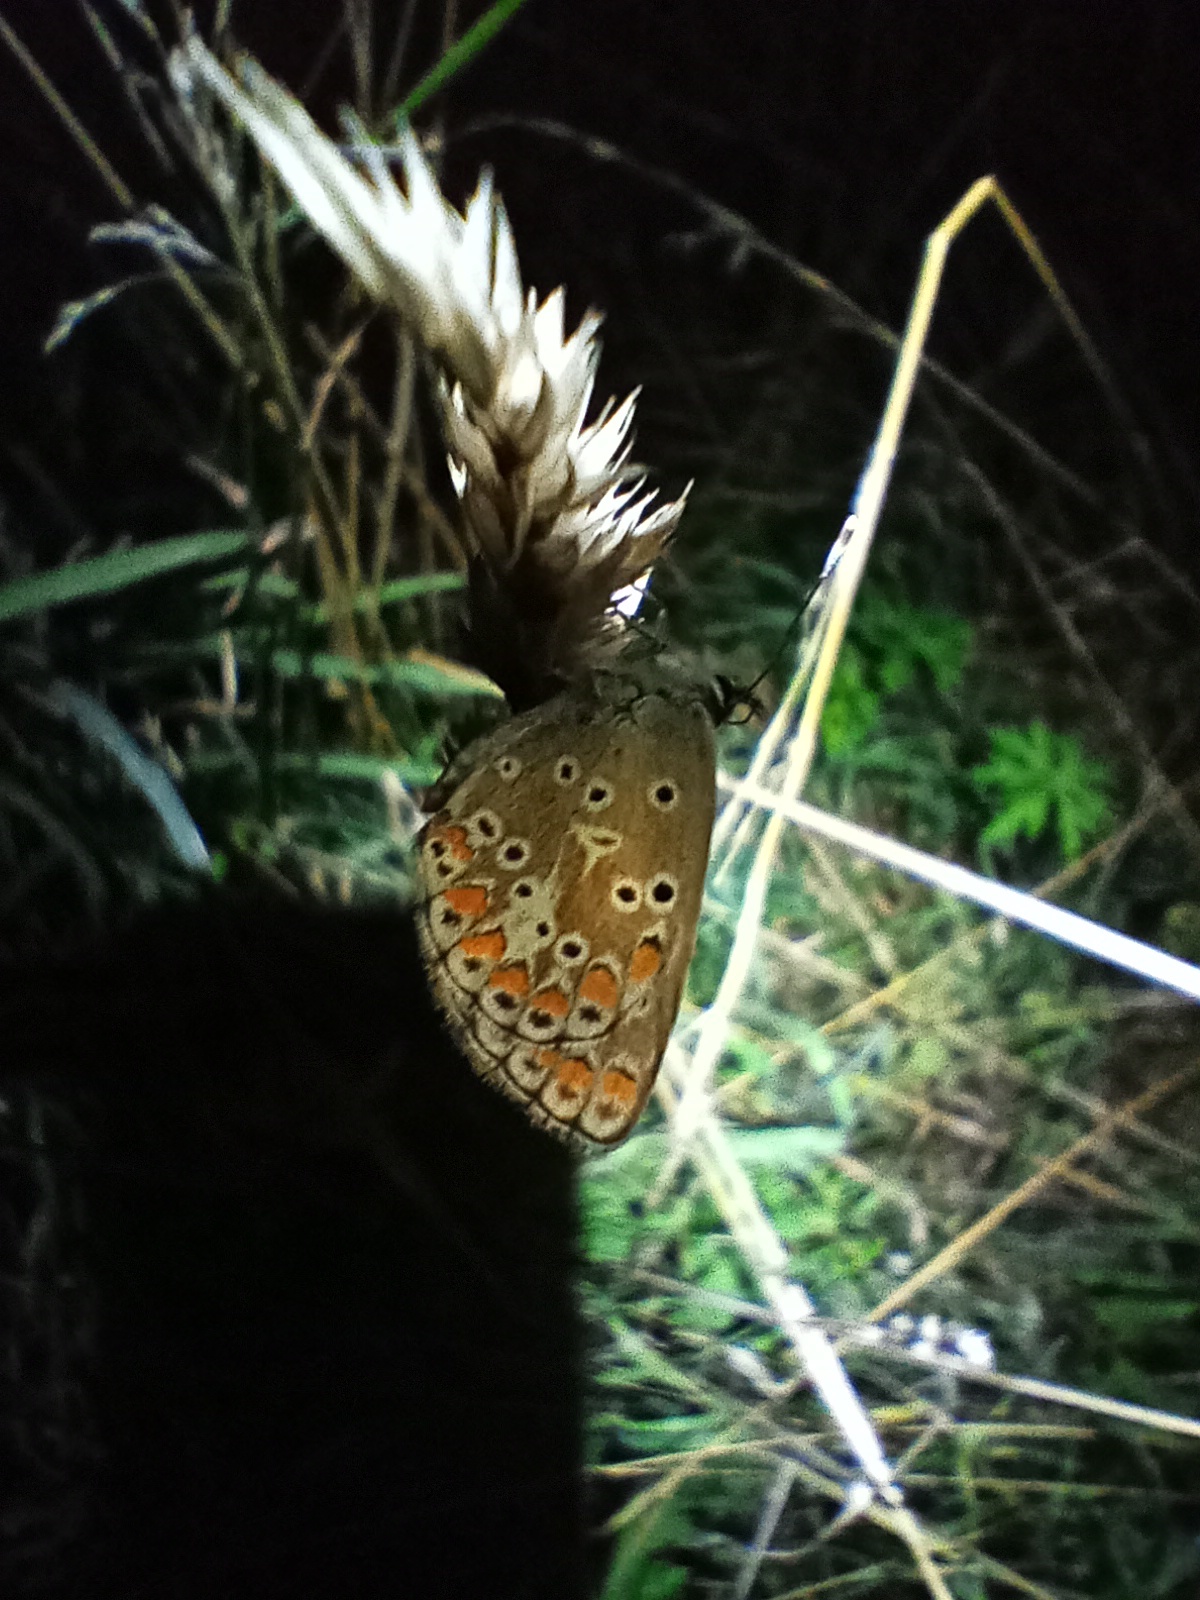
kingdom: Animalia
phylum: Arthropoda
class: Insecta
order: Lepidoptera
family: Lycaenidae
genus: Aricia
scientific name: Aricia agestis
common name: Brown argus
